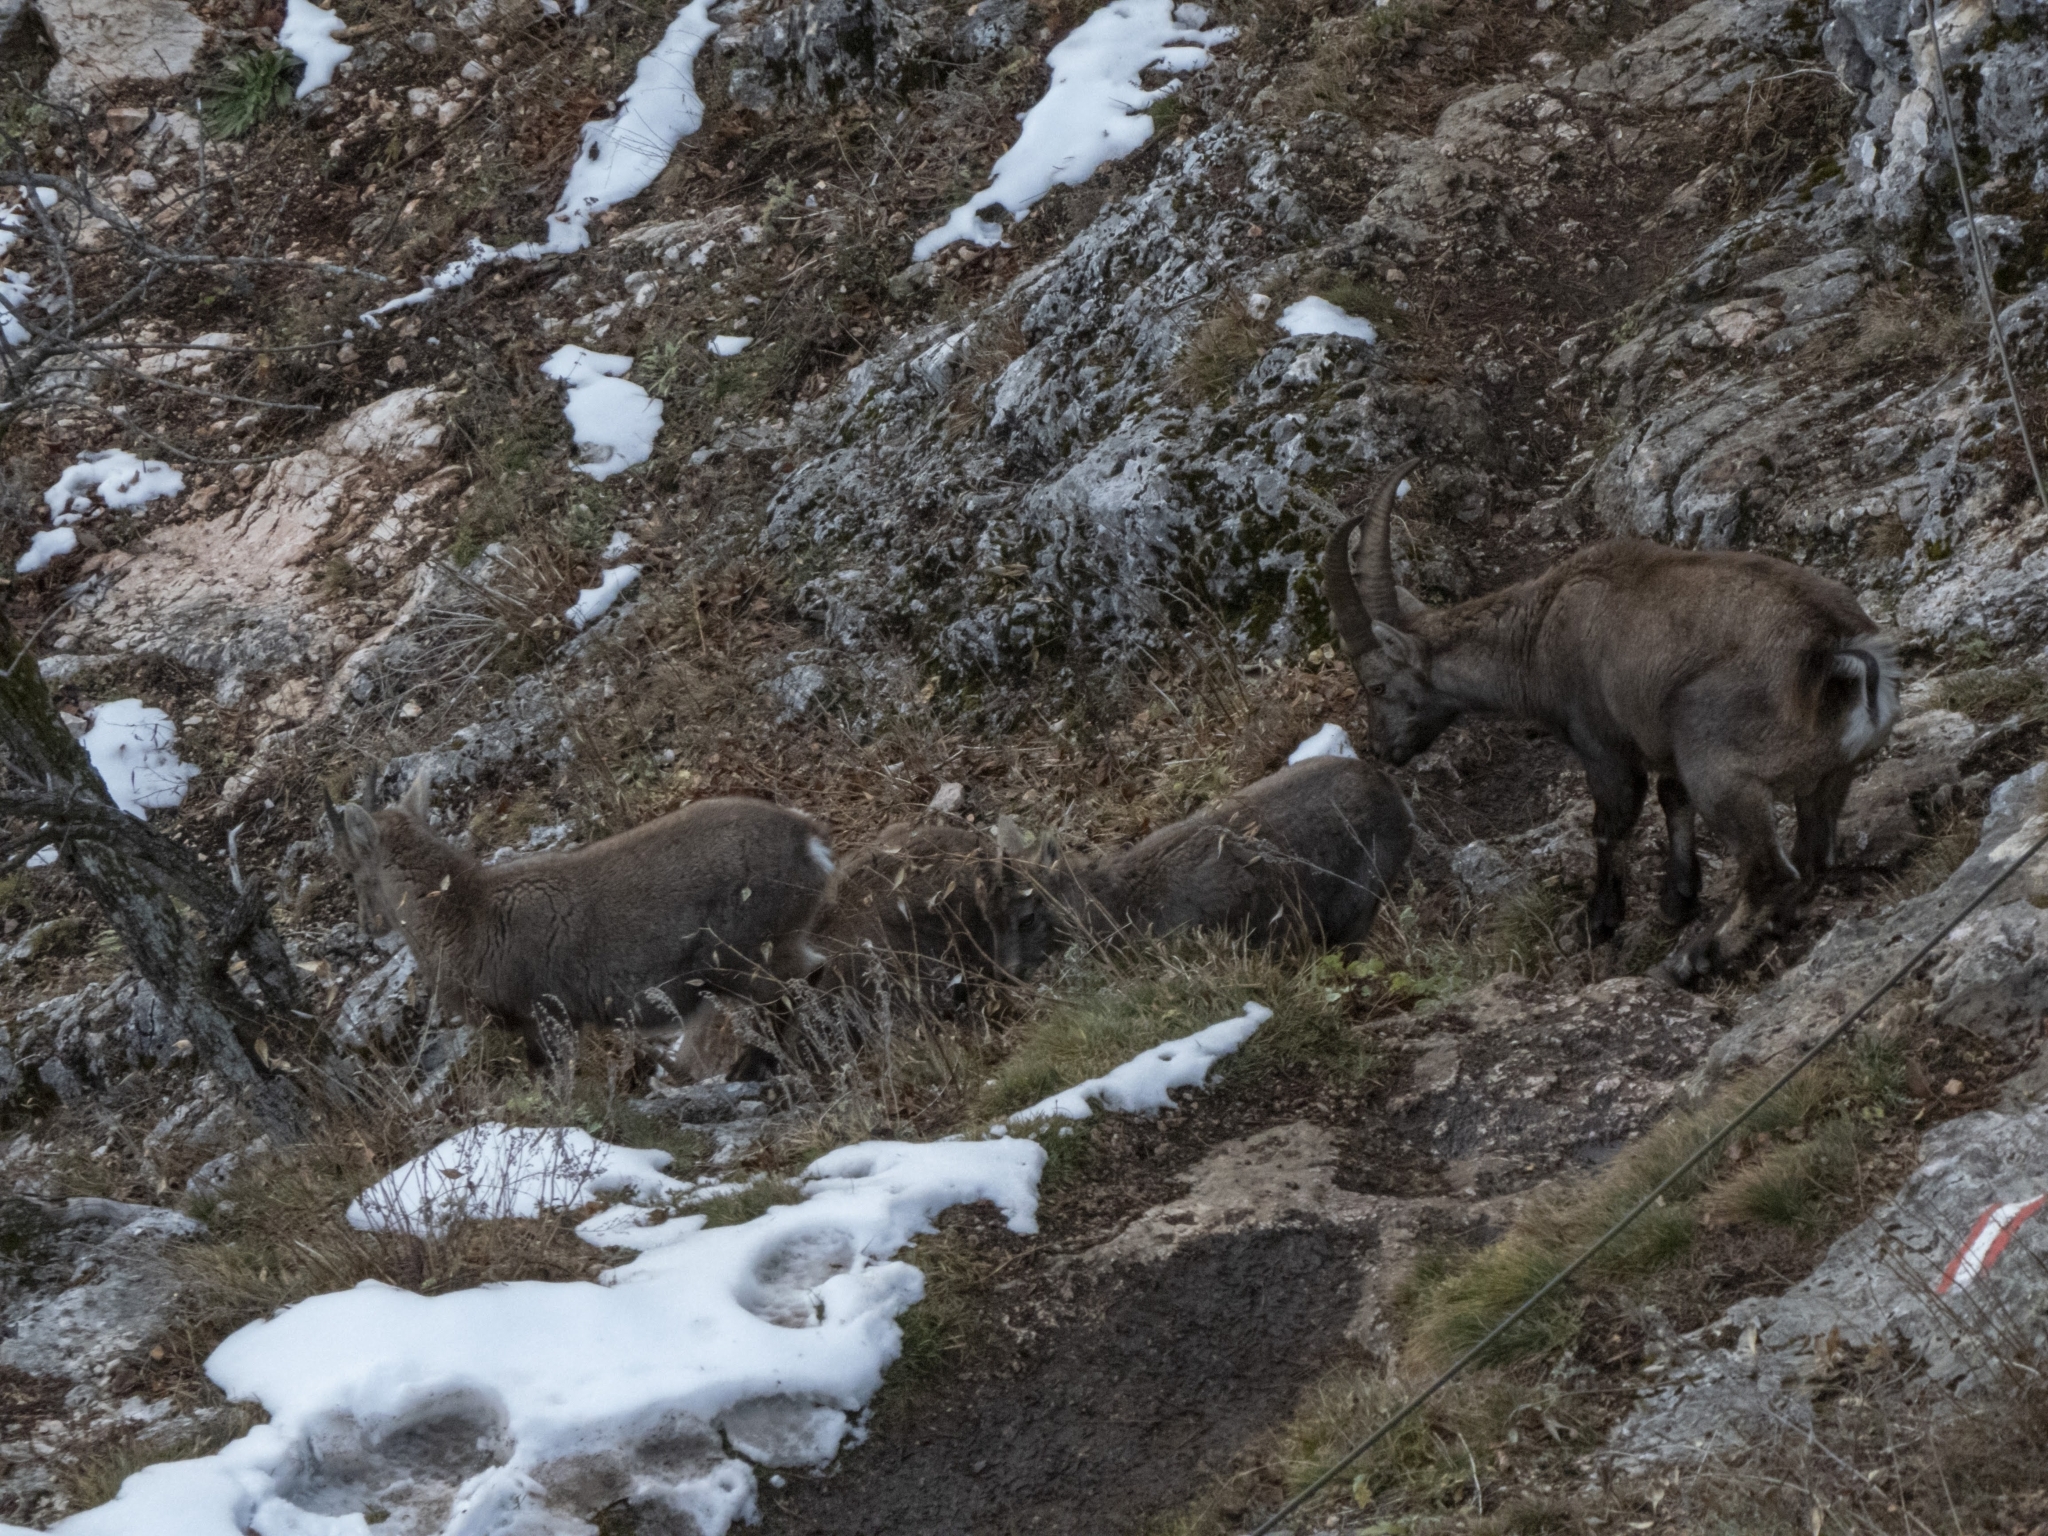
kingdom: Animalia
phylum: Chordata
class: Mammalia
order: Artiodactyla
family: Bovidae
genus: Capra
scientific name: Capra ibex
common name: Alpine ibex
